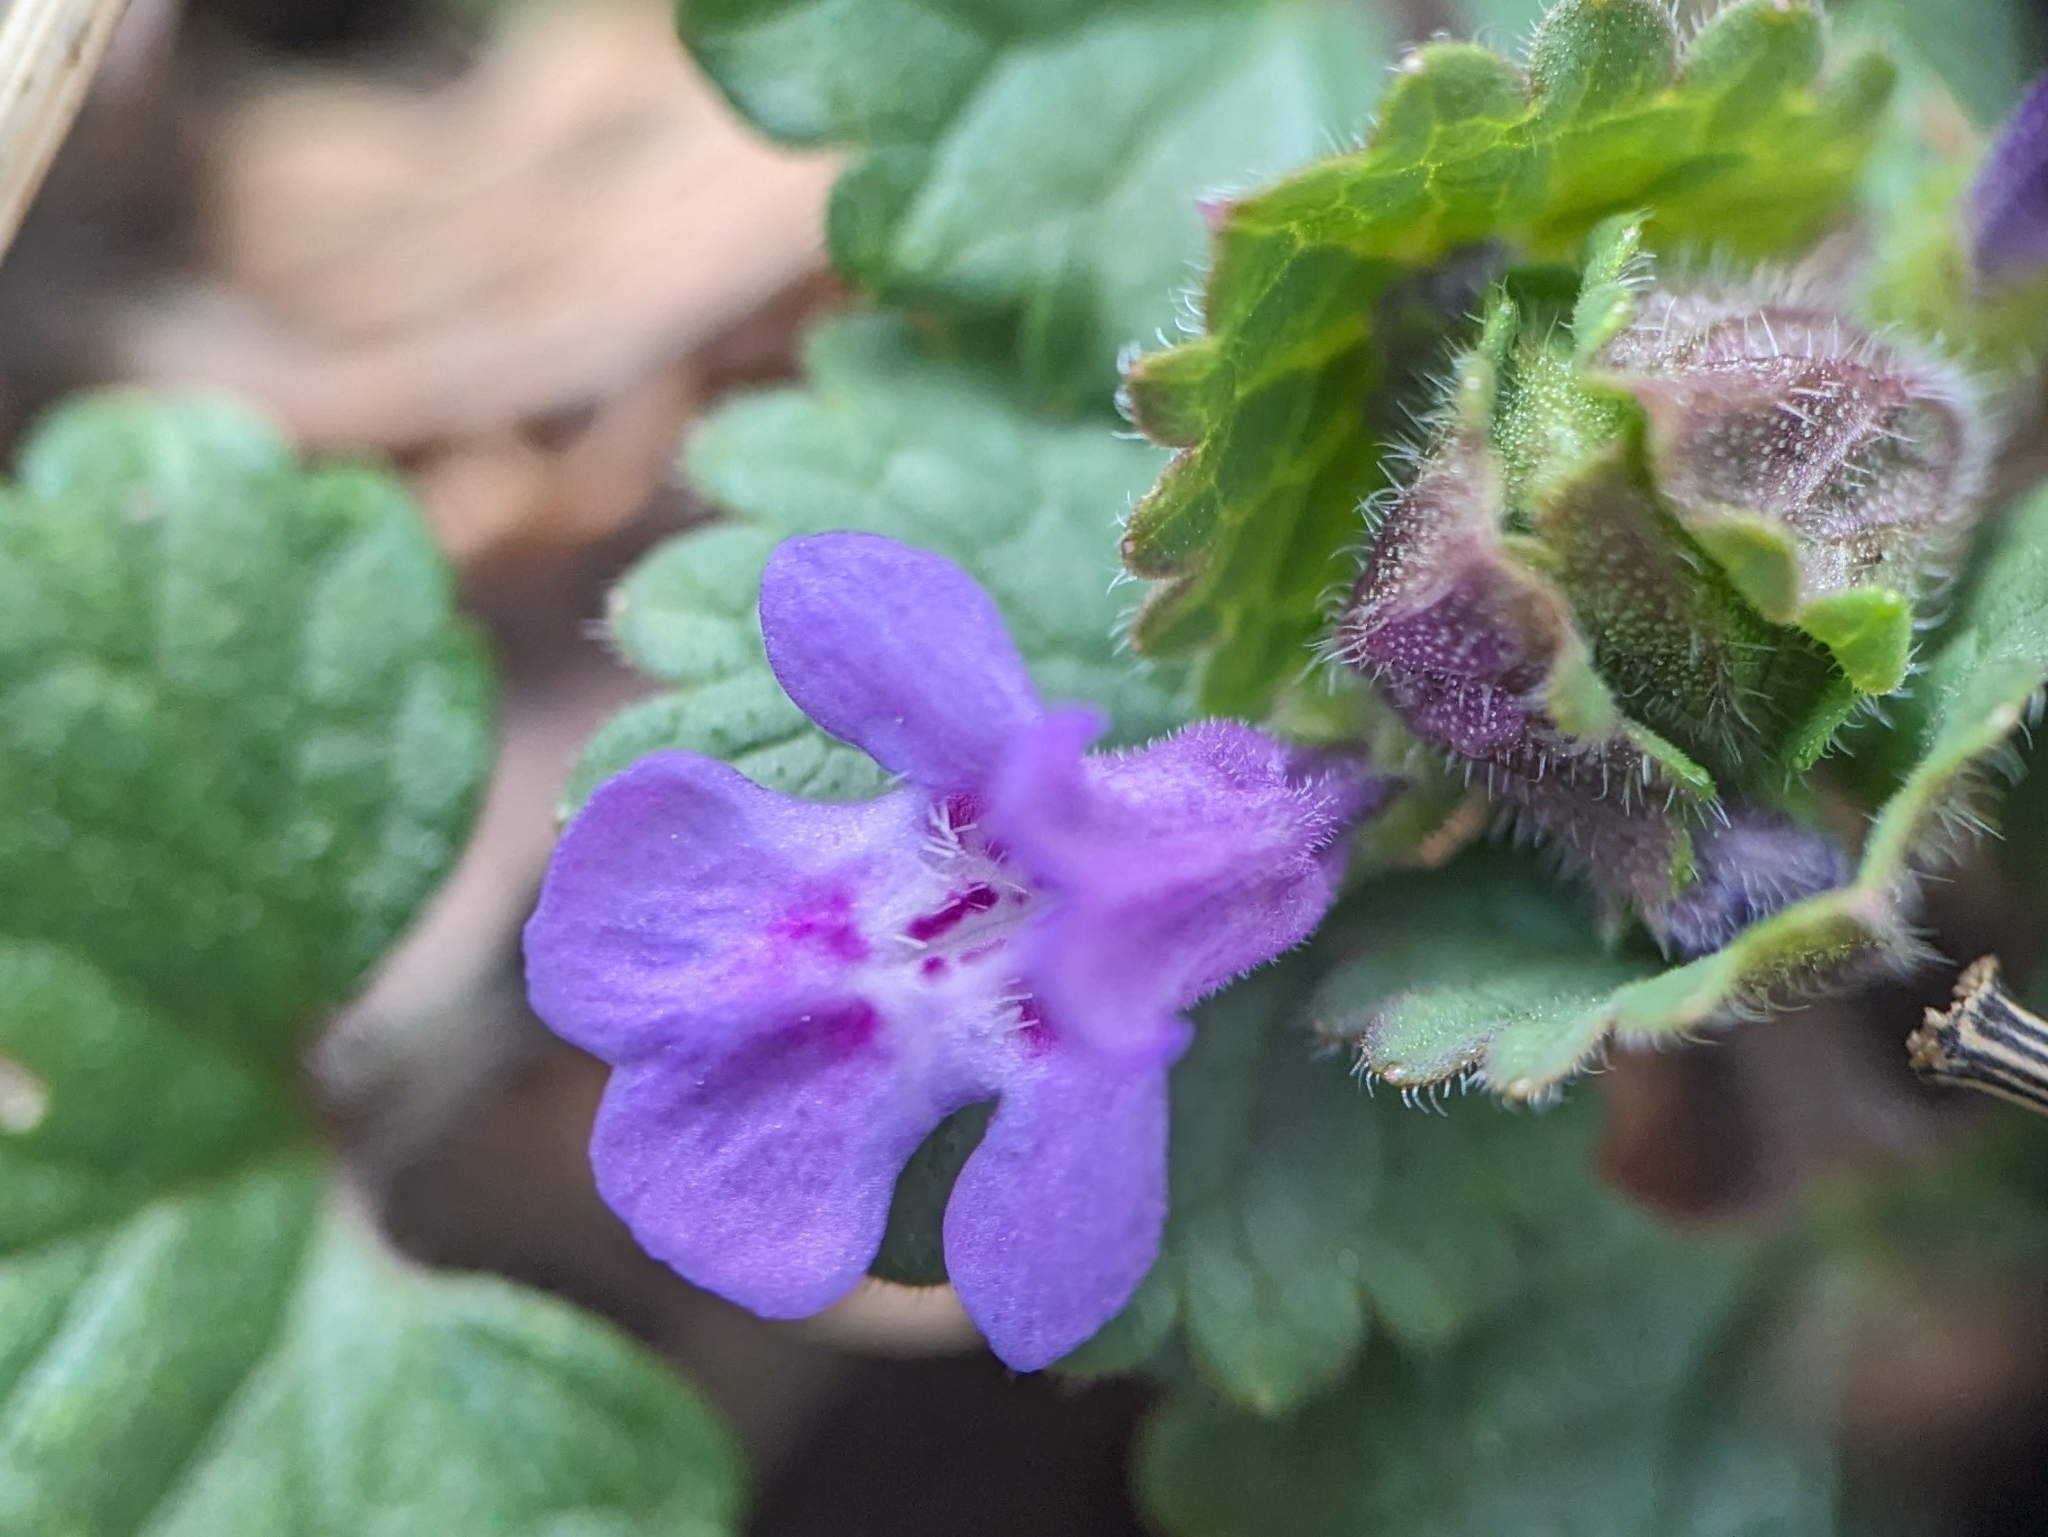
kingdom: Plantae
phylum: Tracheophyta
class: Magnoliopsida
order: Lamiales
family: Lamiaceae
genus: Glechoma
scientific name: Glechoma hederacea
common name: Ground ivy
